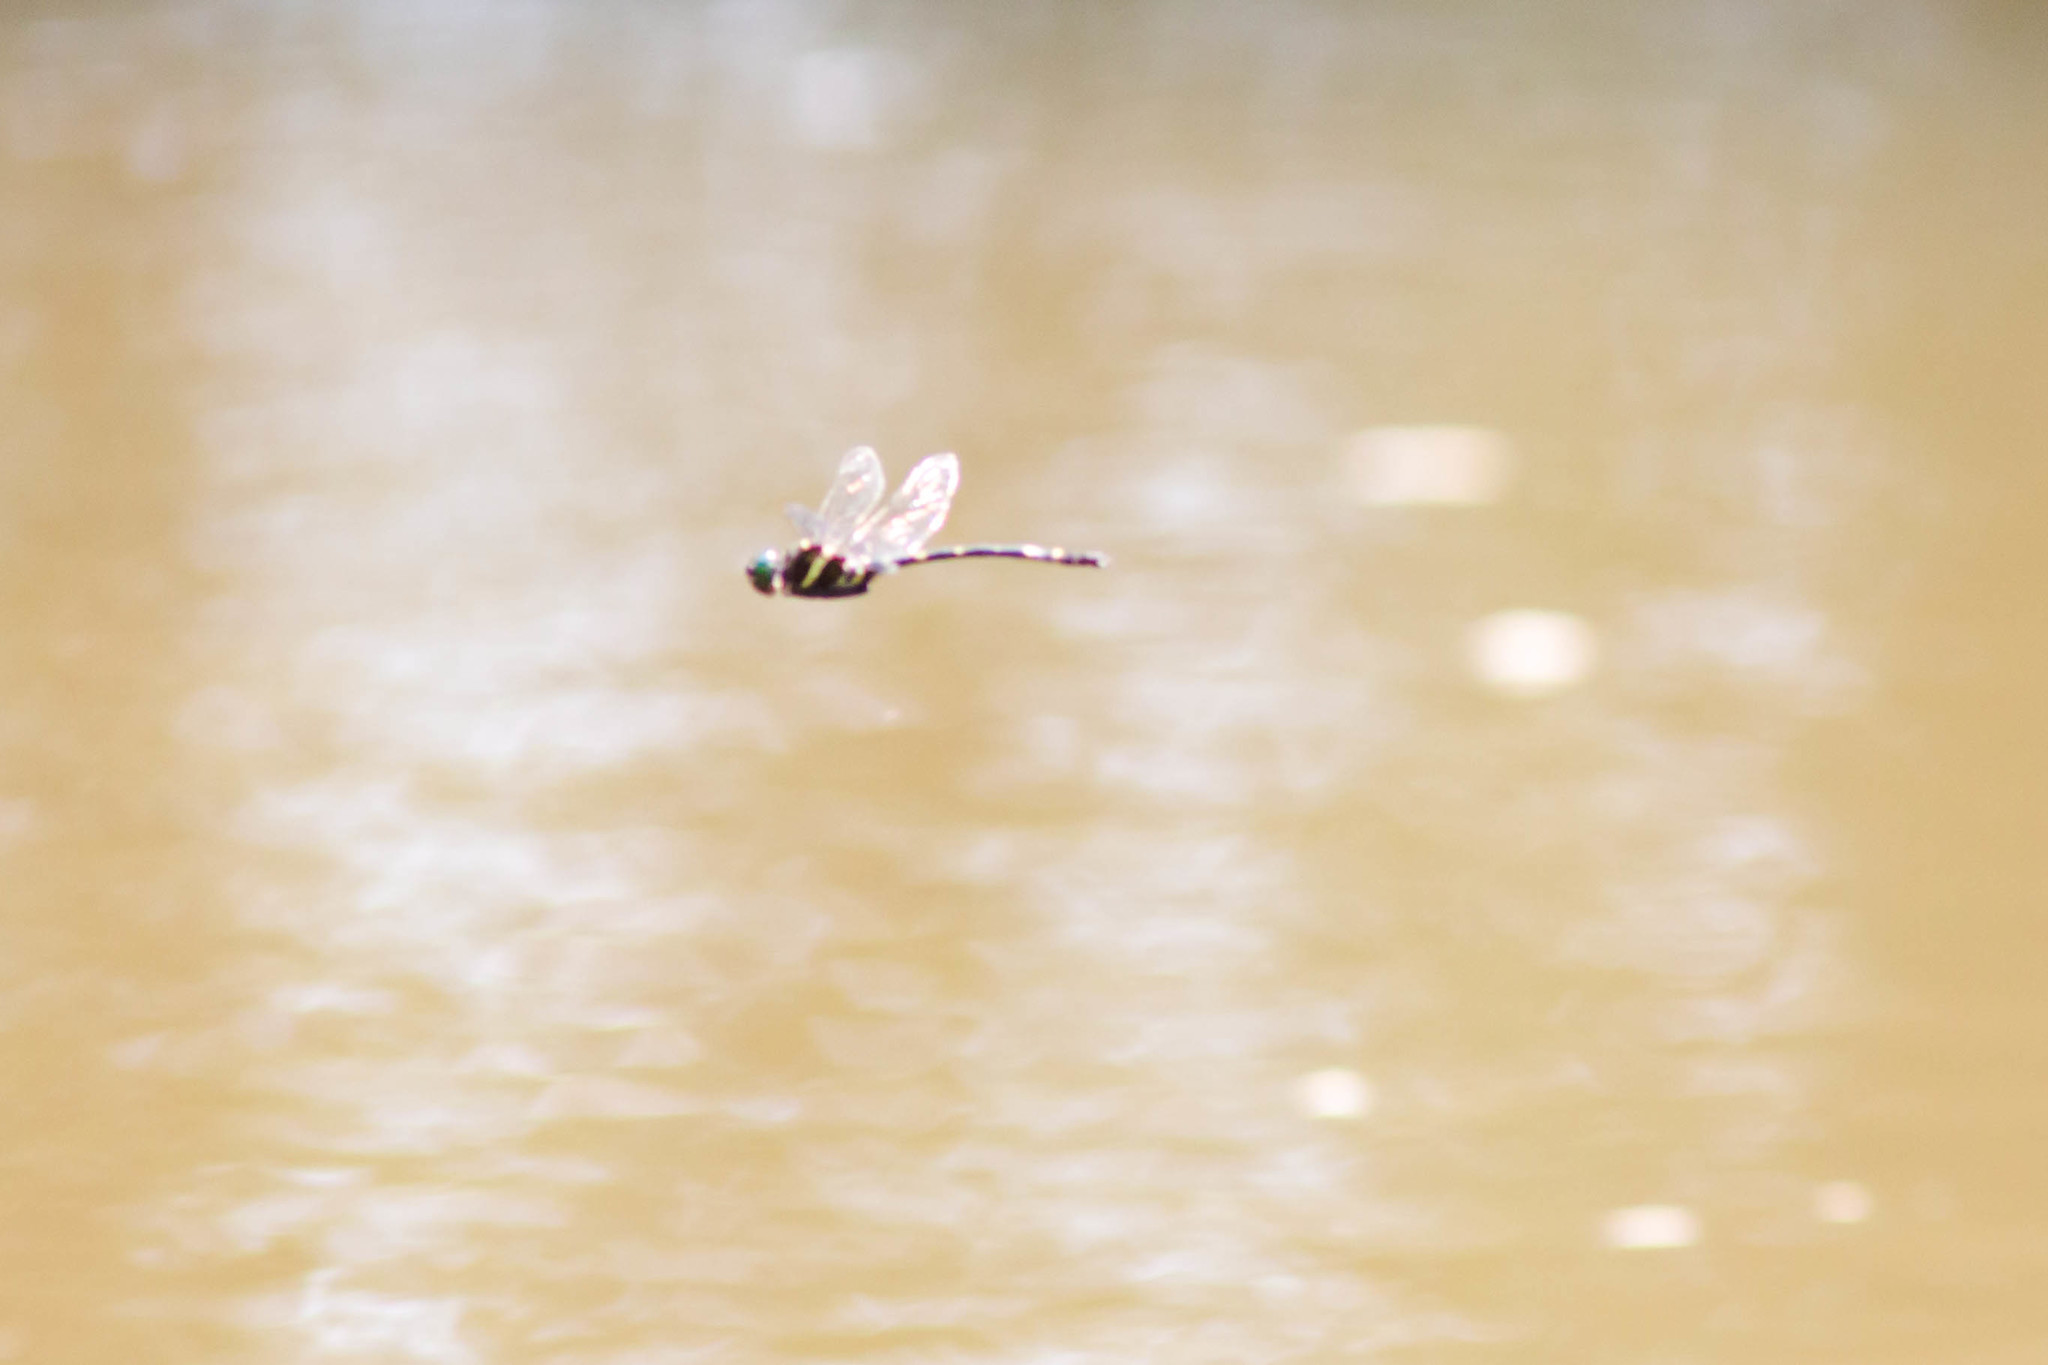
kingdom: Animalia
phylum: Arthropoda
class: Insecta
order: Odonata
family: Macromiidae
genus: Macromia
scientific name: Macromia illinoiensis
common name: Swift river cruiser
